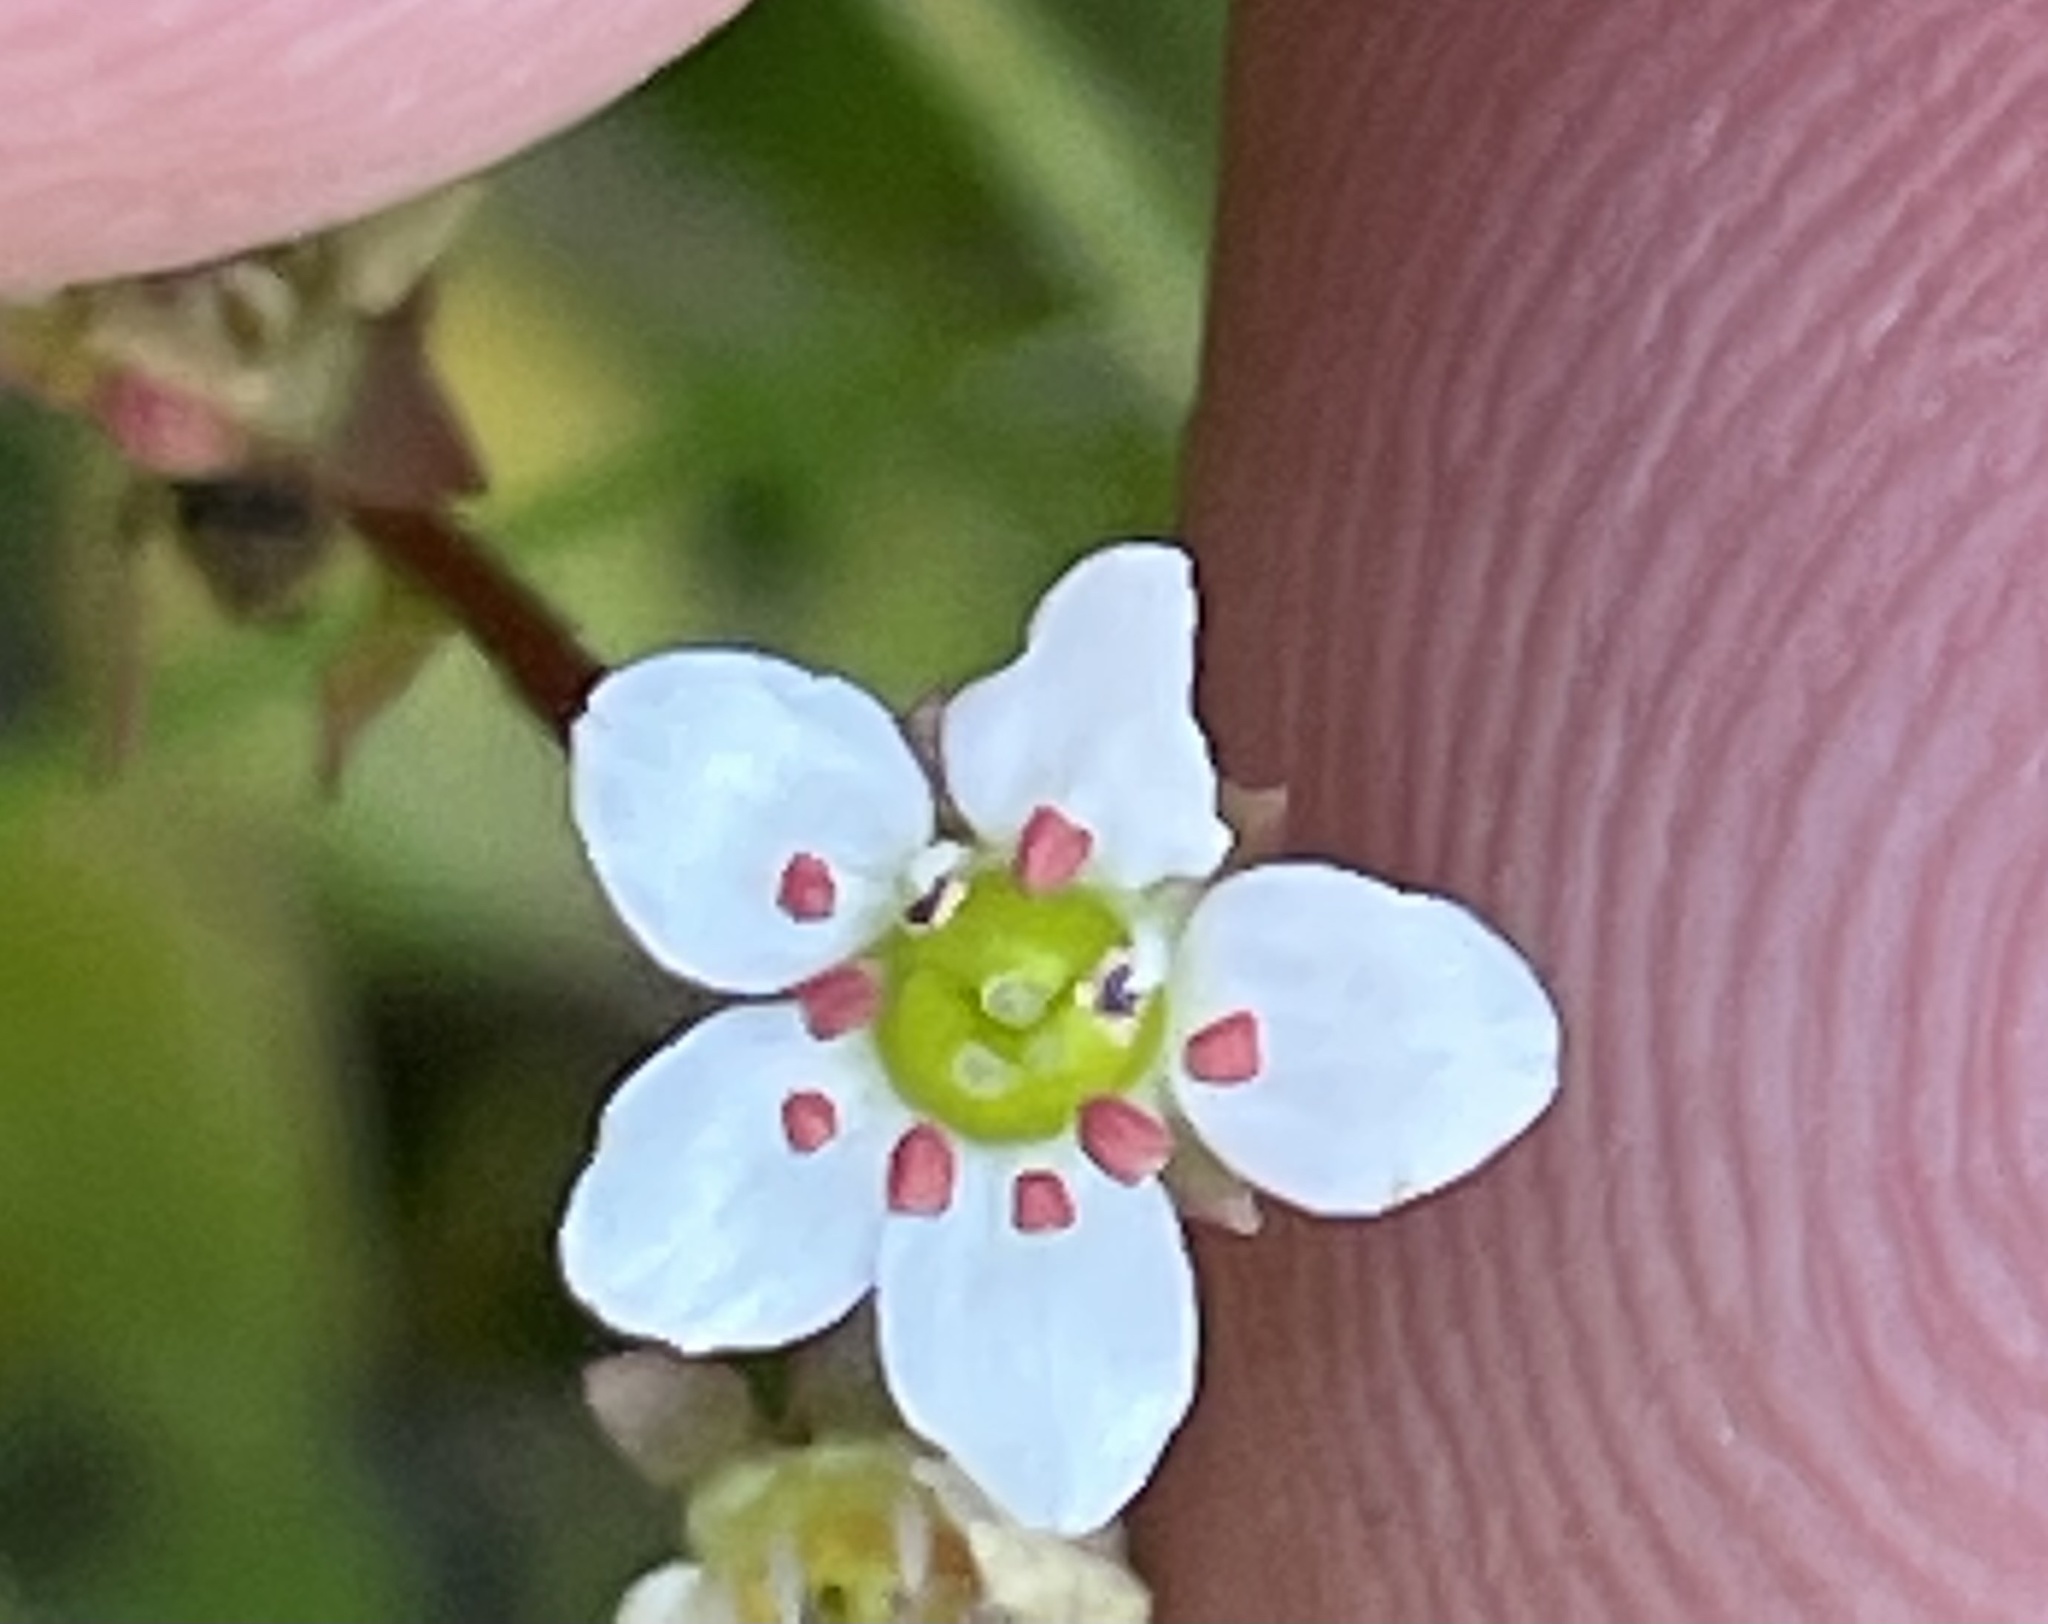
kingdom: Plantae
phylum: Tracheophyta
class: Magnoliopsida
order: Saxifragales
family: Saxifragaceae
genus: Micranthes
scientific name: Micranthes californica
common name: California saxifrage
